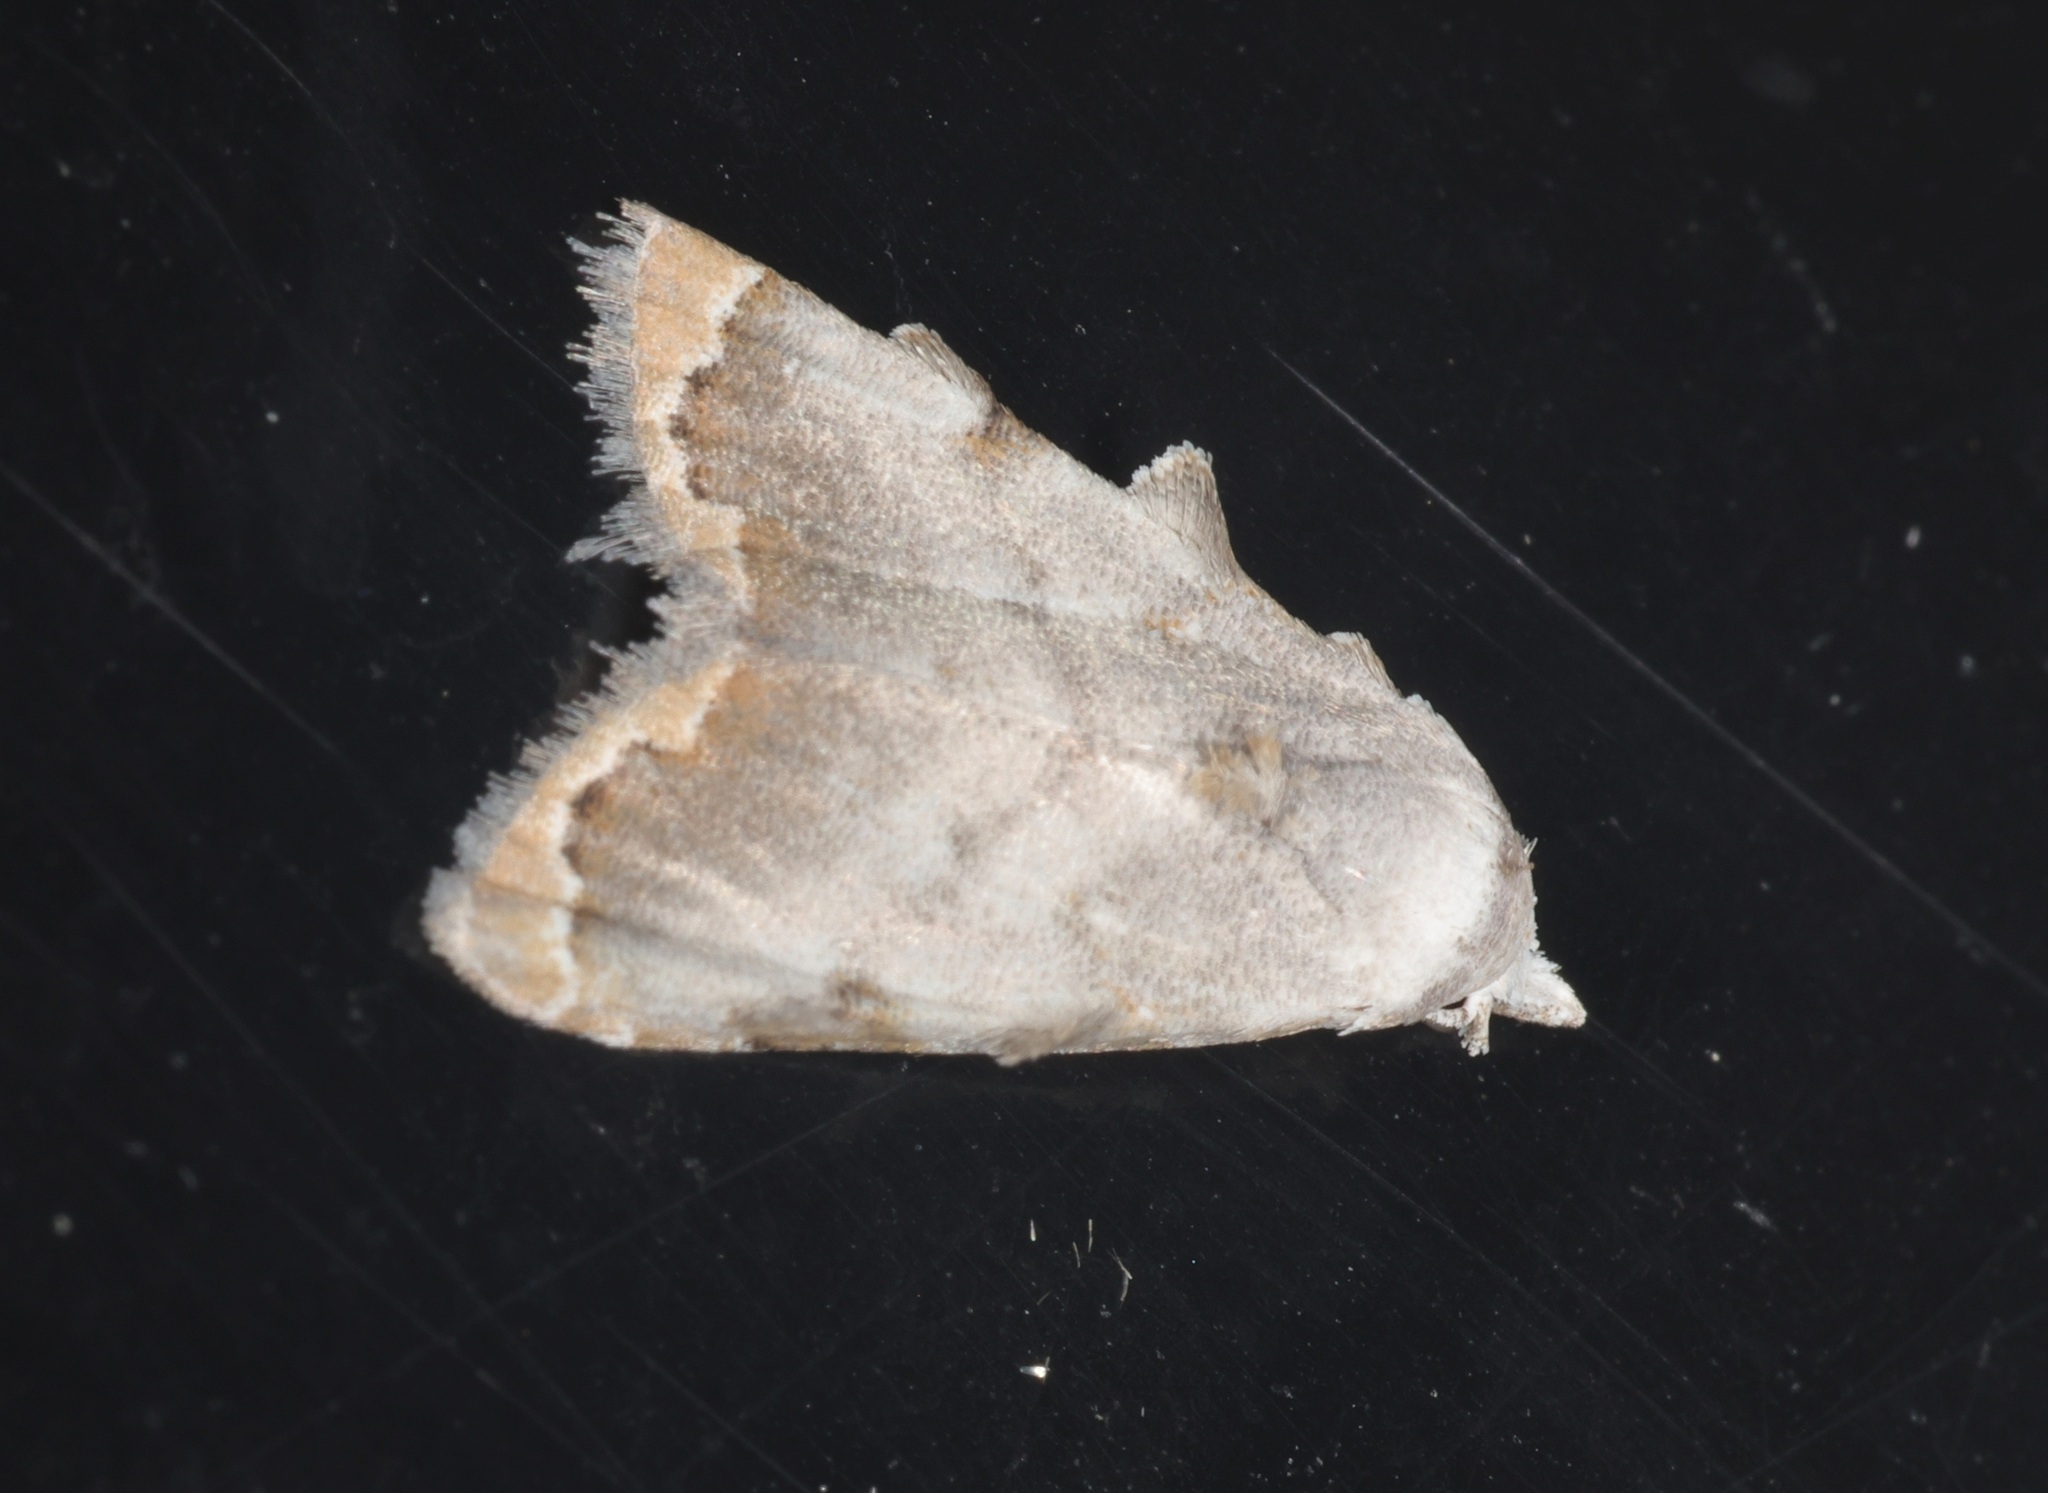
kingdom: Animalia
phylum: Arthropoda
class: Insecta
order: Lepidoptera
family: Nolidae
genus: Nola
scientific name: Nola marginata
